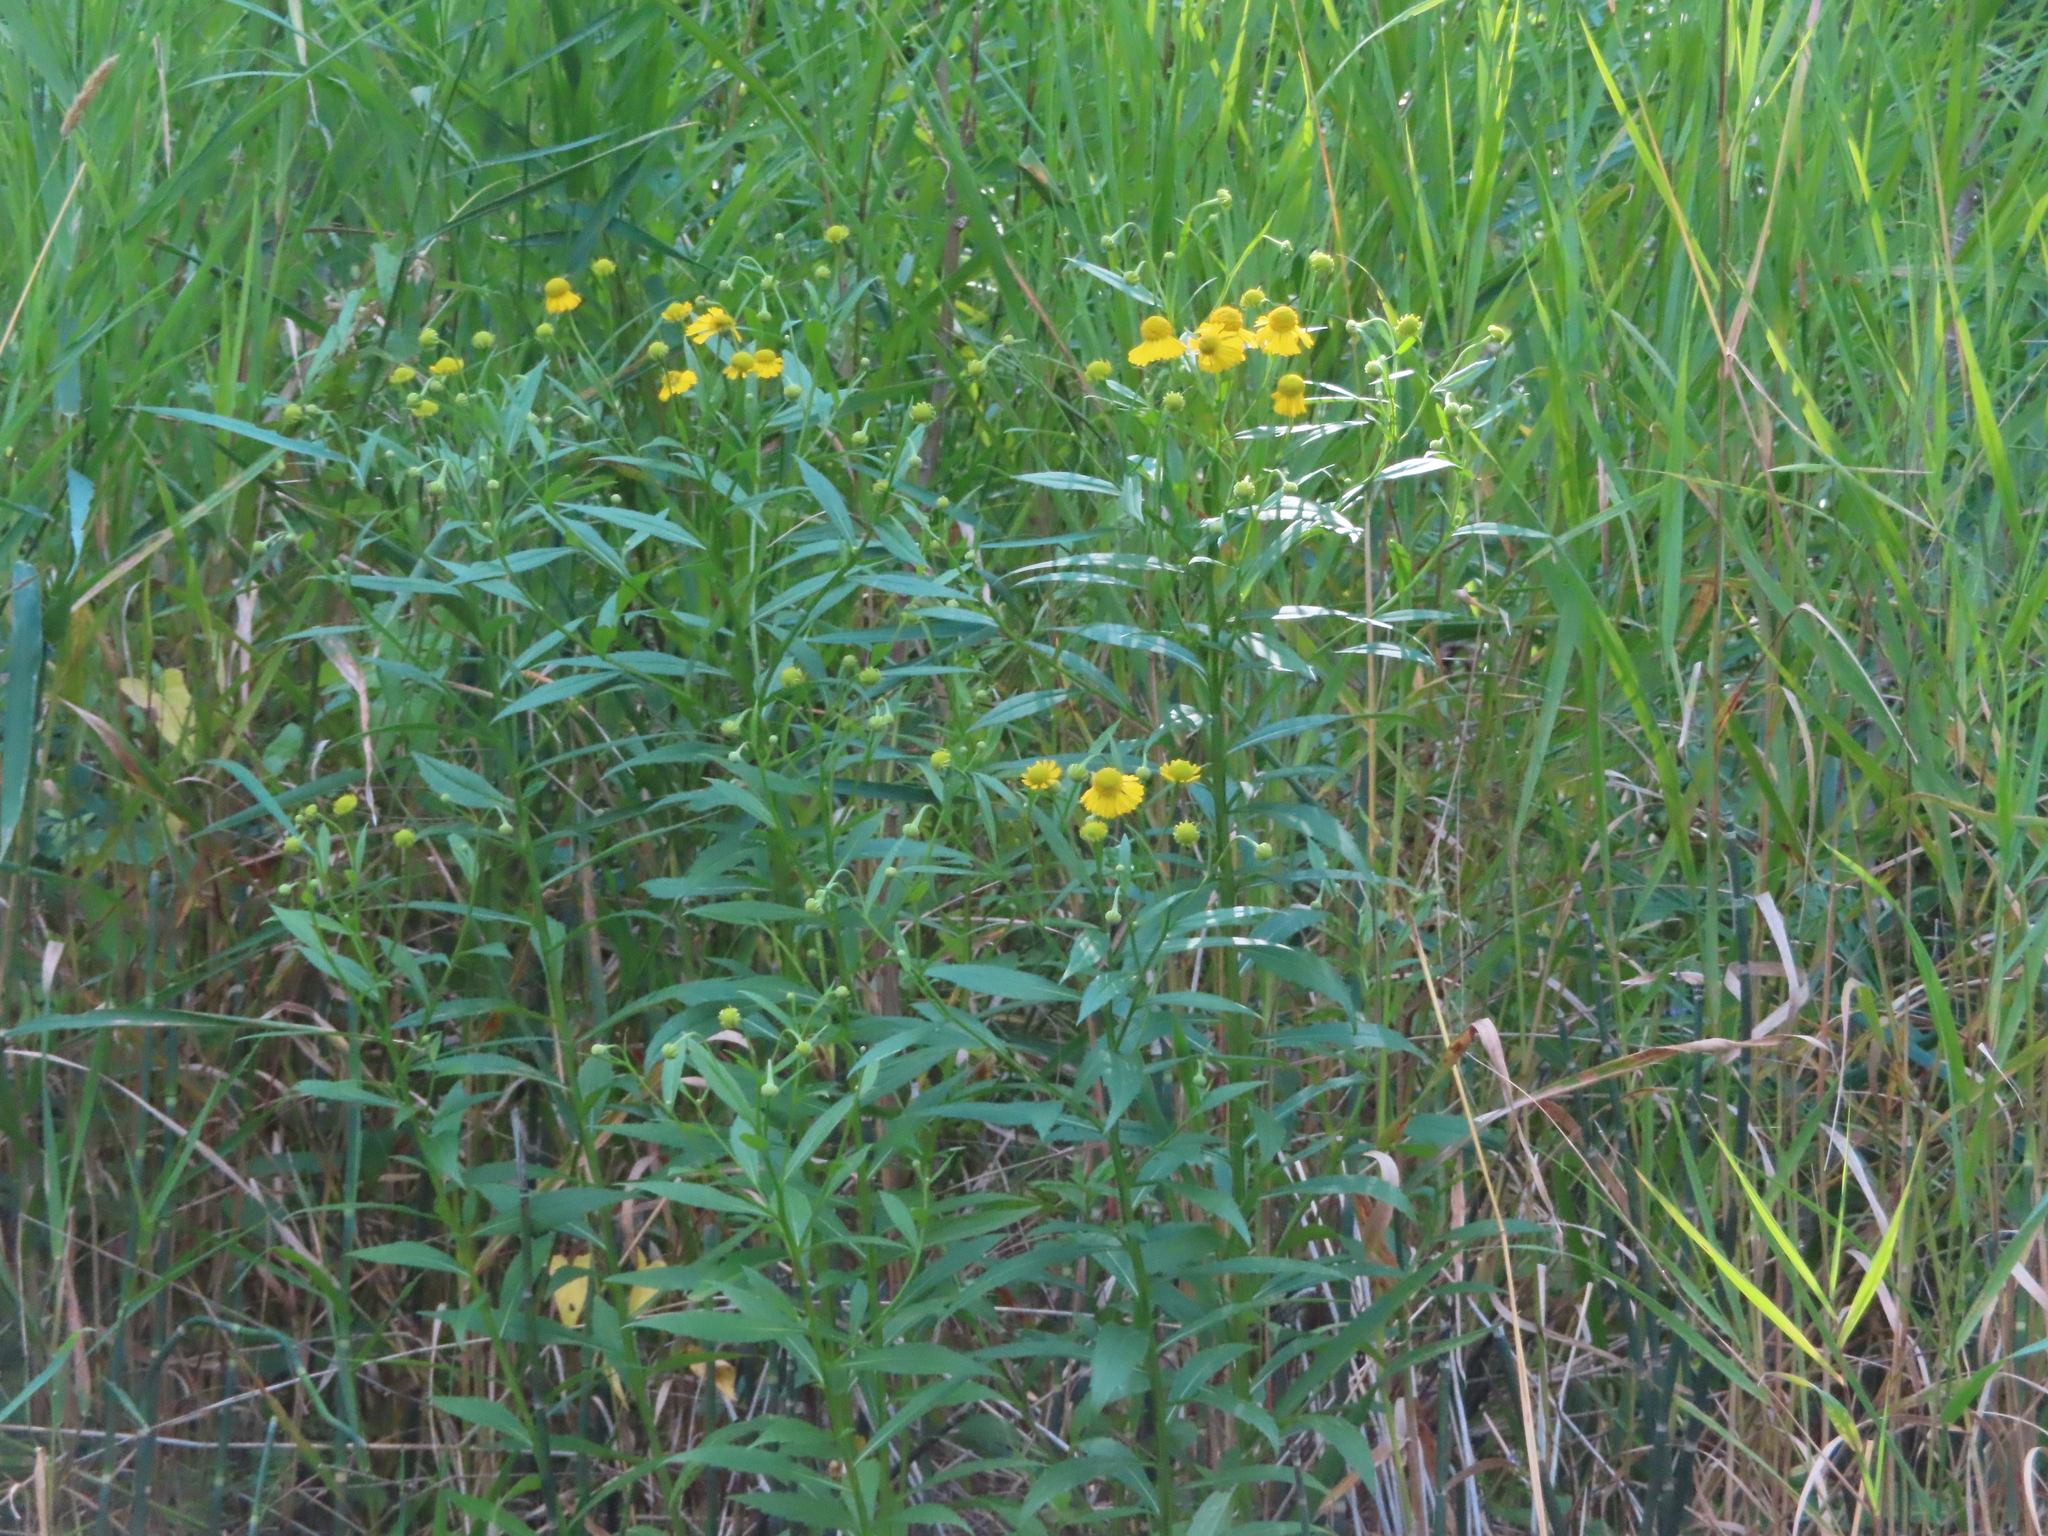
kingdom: Plantae
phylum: Tracheophyta
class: Magnoliopsida
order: Asterales
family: Asteraceae
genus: Helenium
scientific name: Helenium autumnale
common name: Sneezeweed
